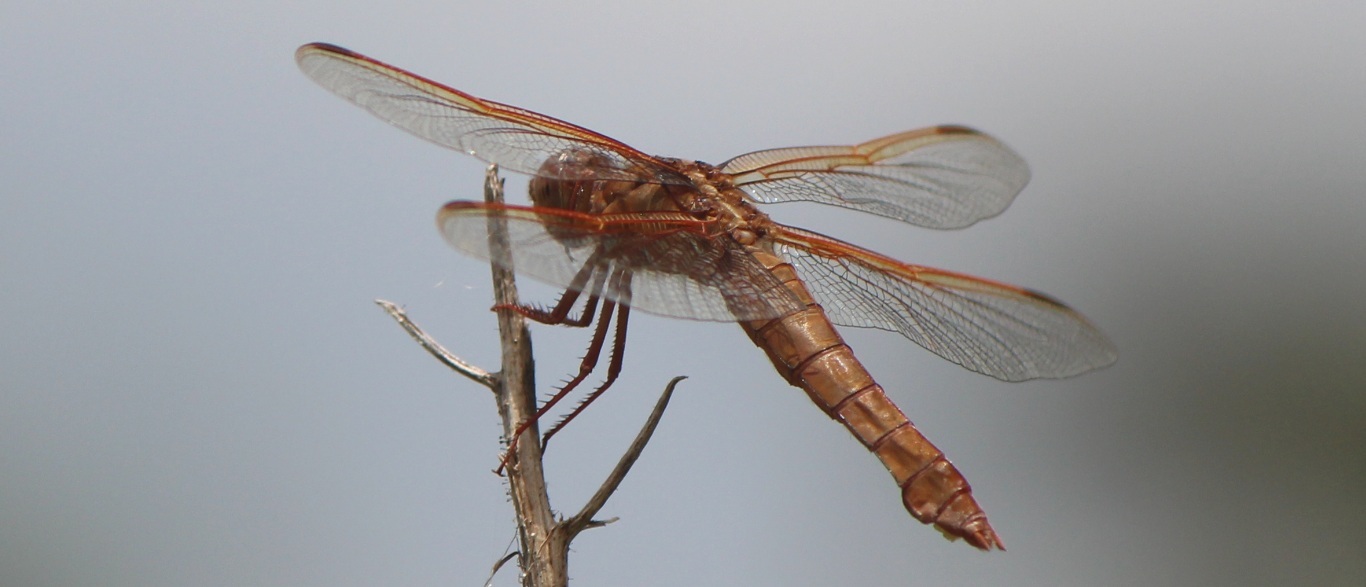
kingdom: Animalia
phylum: Arthropoda
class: Insecta
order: Odonata
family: Libellulidae
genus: Libellula
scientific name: Libellula croceipennis
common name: Neon skimmer
